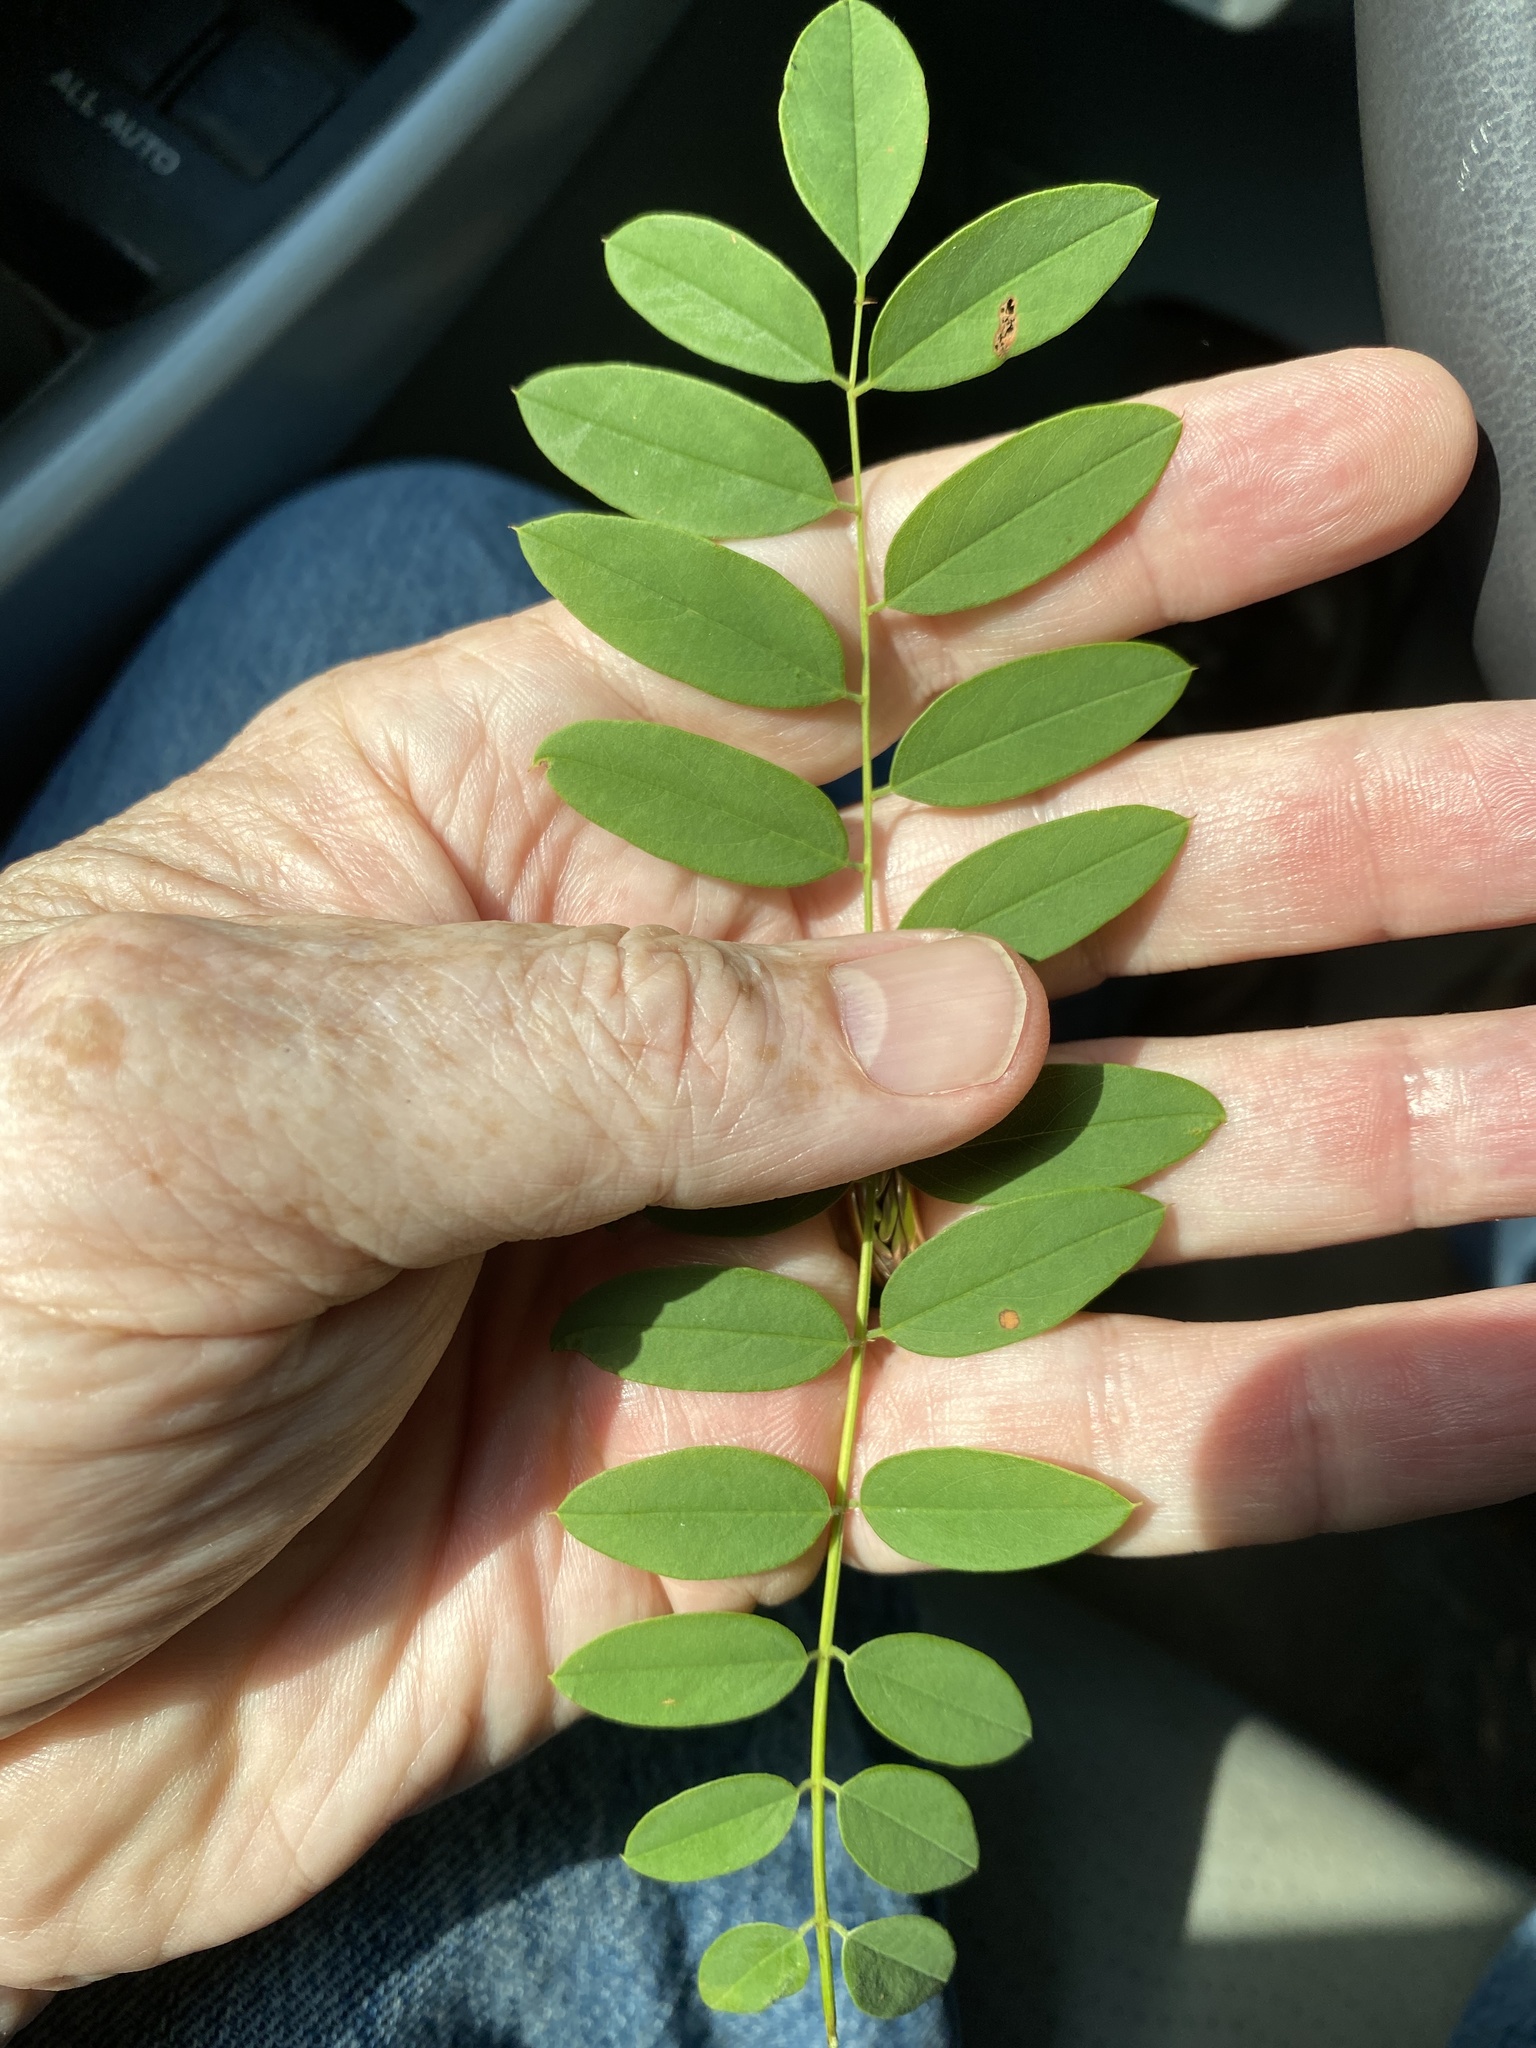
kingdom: Plantae
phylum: Tracheophyta
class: Magnoliopsida
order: Fabales
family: Fabaceae
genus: Robinia
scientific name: Robinia viscosa
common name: Clammy locust
